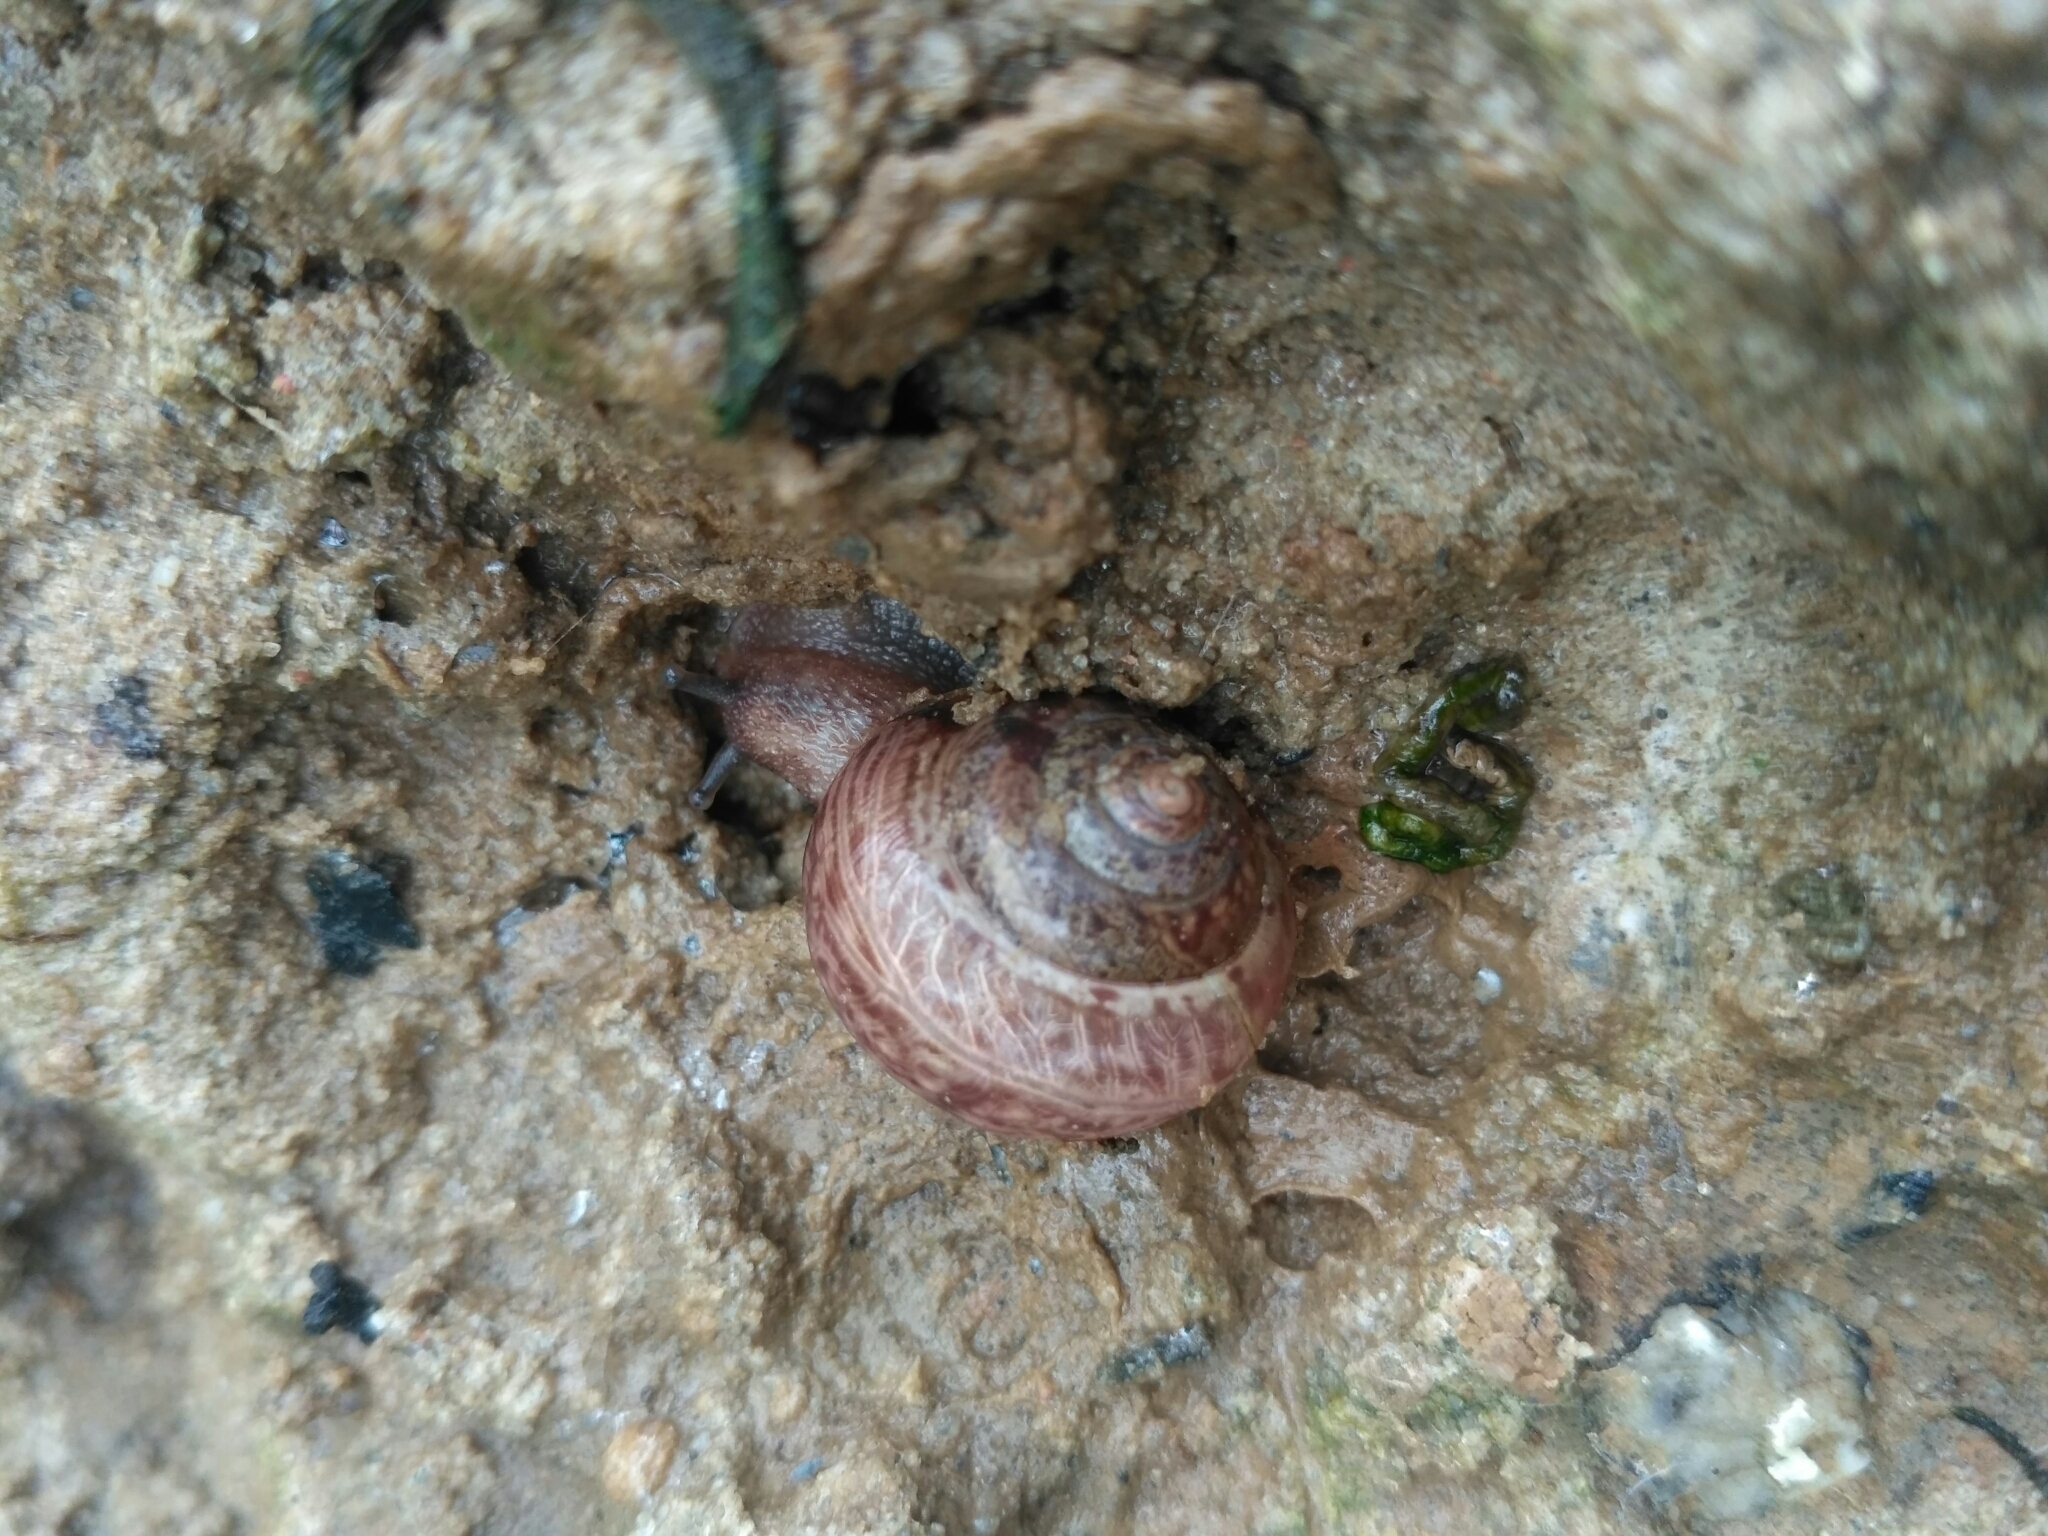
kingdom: Animalia
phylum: Mollusca
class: Gastropoda
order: Stylommatophora
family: Camaenidae
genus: Fruticicola
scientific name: Fruticicola fruticum
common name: Bush snail
